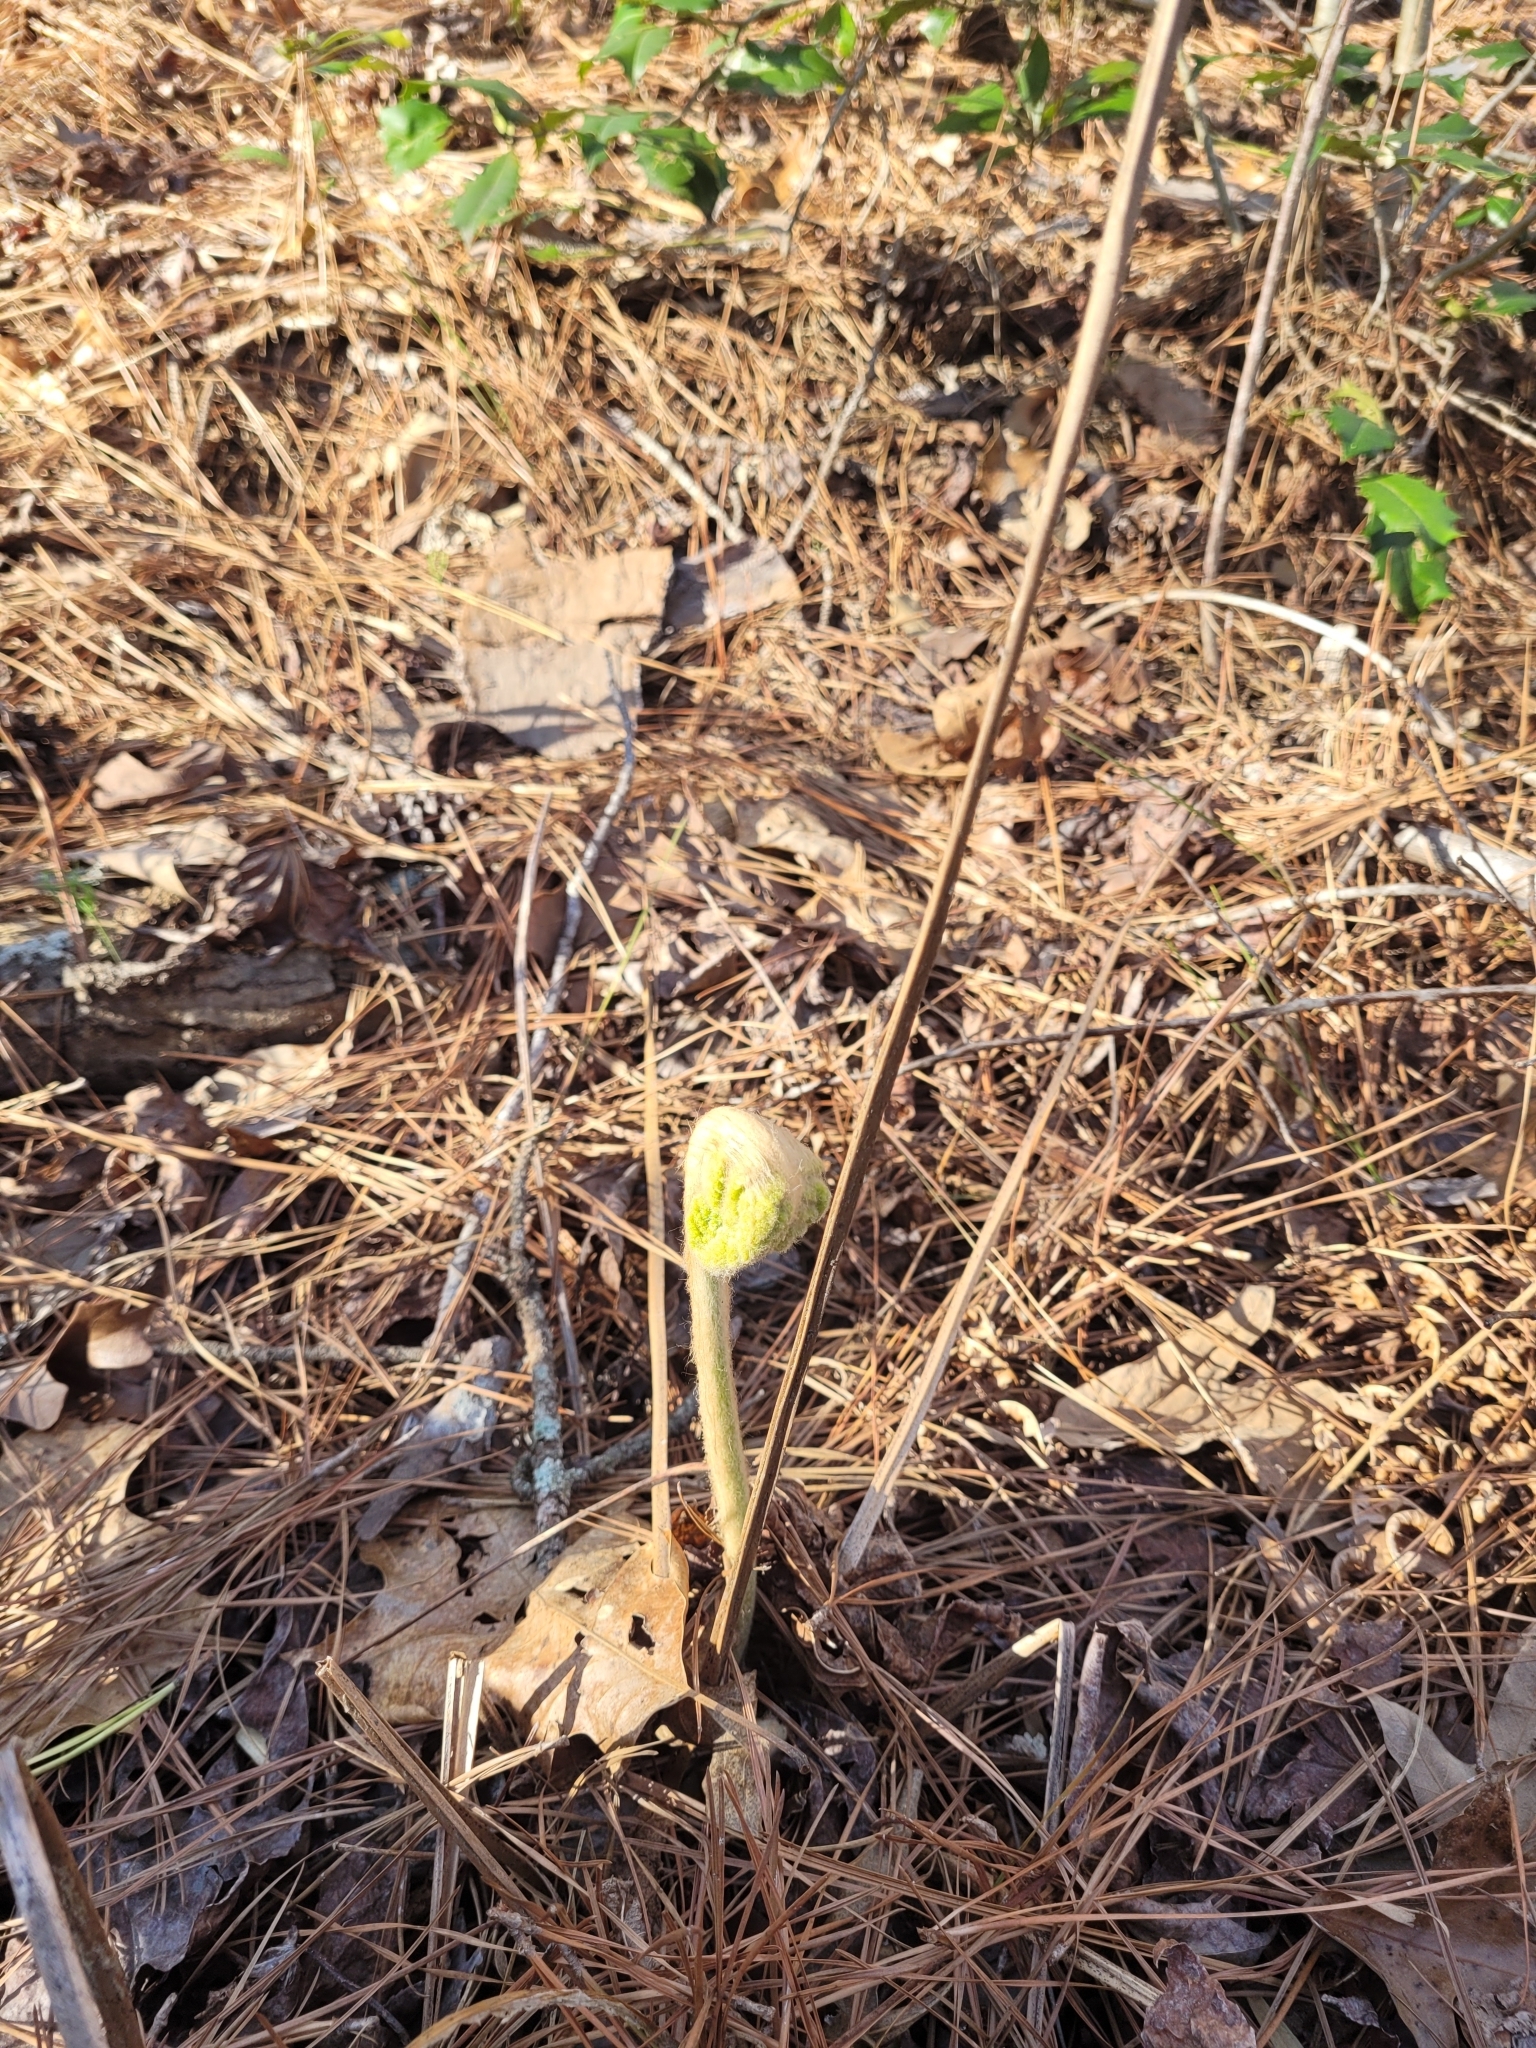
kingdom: Plantae
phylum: Tracheophyta
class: Polypodiopsida
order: Osmundales
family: Osmundaceae
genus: Osmundastrum
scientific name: Osmundastrum cinnamomeum
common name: Cinnamon fern
